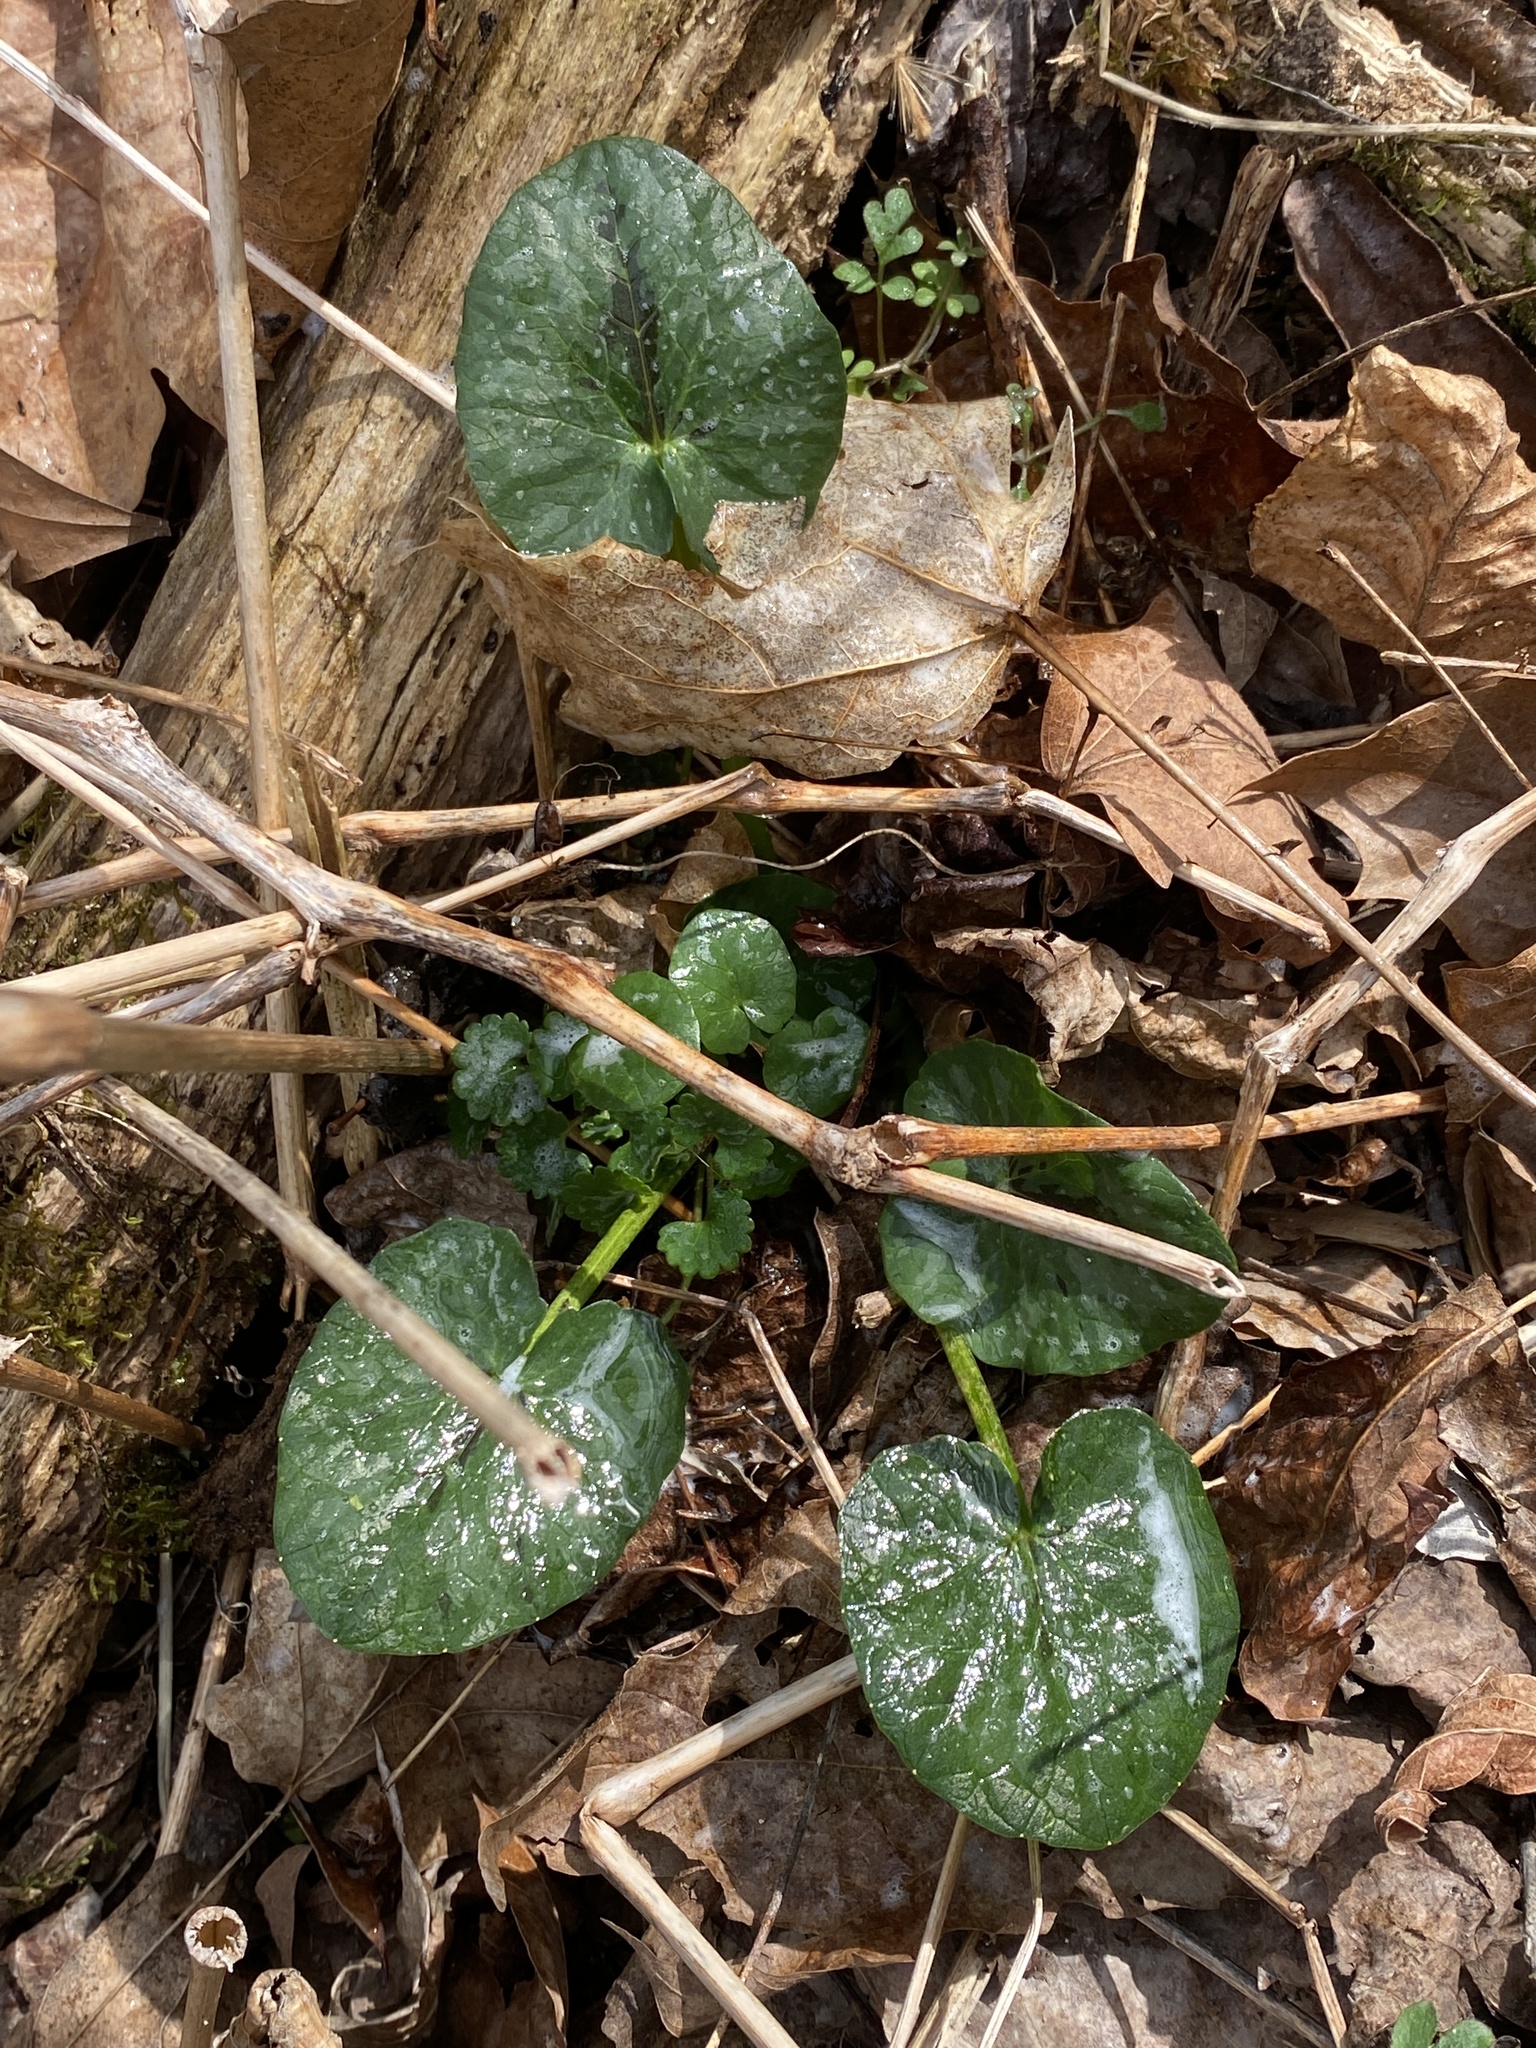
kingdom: Plantae
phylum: Tracheophyta
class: Magnoliopsida
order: Ranunculales
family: Ranunculaceae
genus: Ficaria
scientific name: Ficaria verna
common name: Lesser celandine
